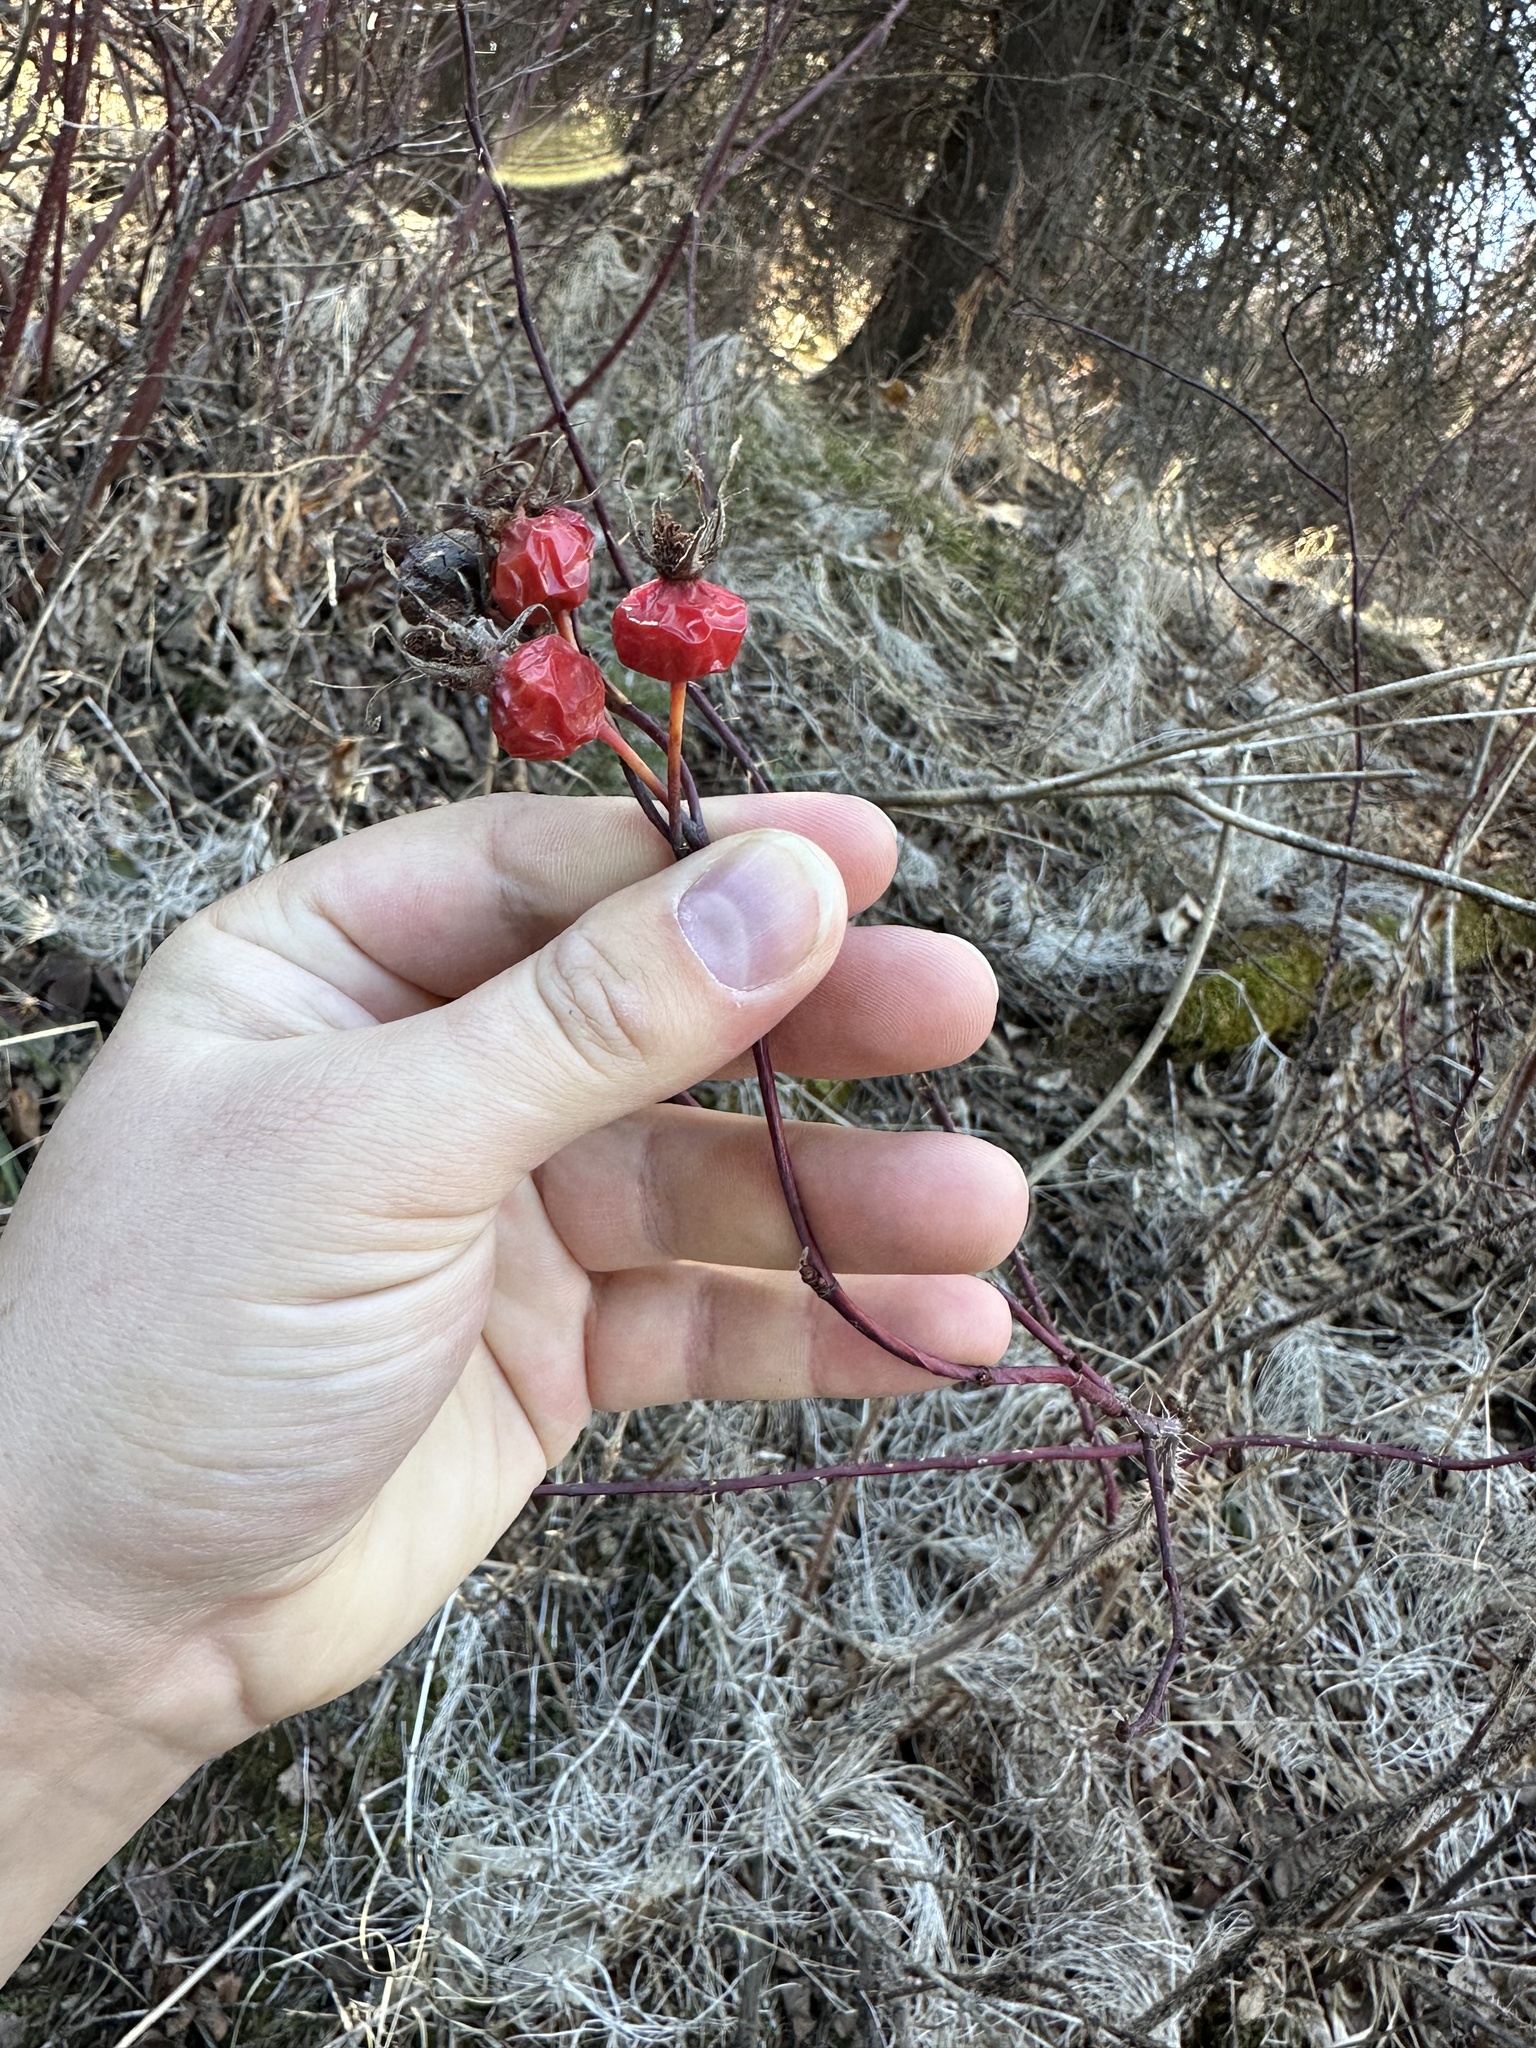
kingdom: Plantae
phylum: Tracheophyta
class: Magnoliopsida
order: Rosales
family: Rosaceae
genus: Rosa
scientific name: Rosa woodsii
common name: Woods's rose
